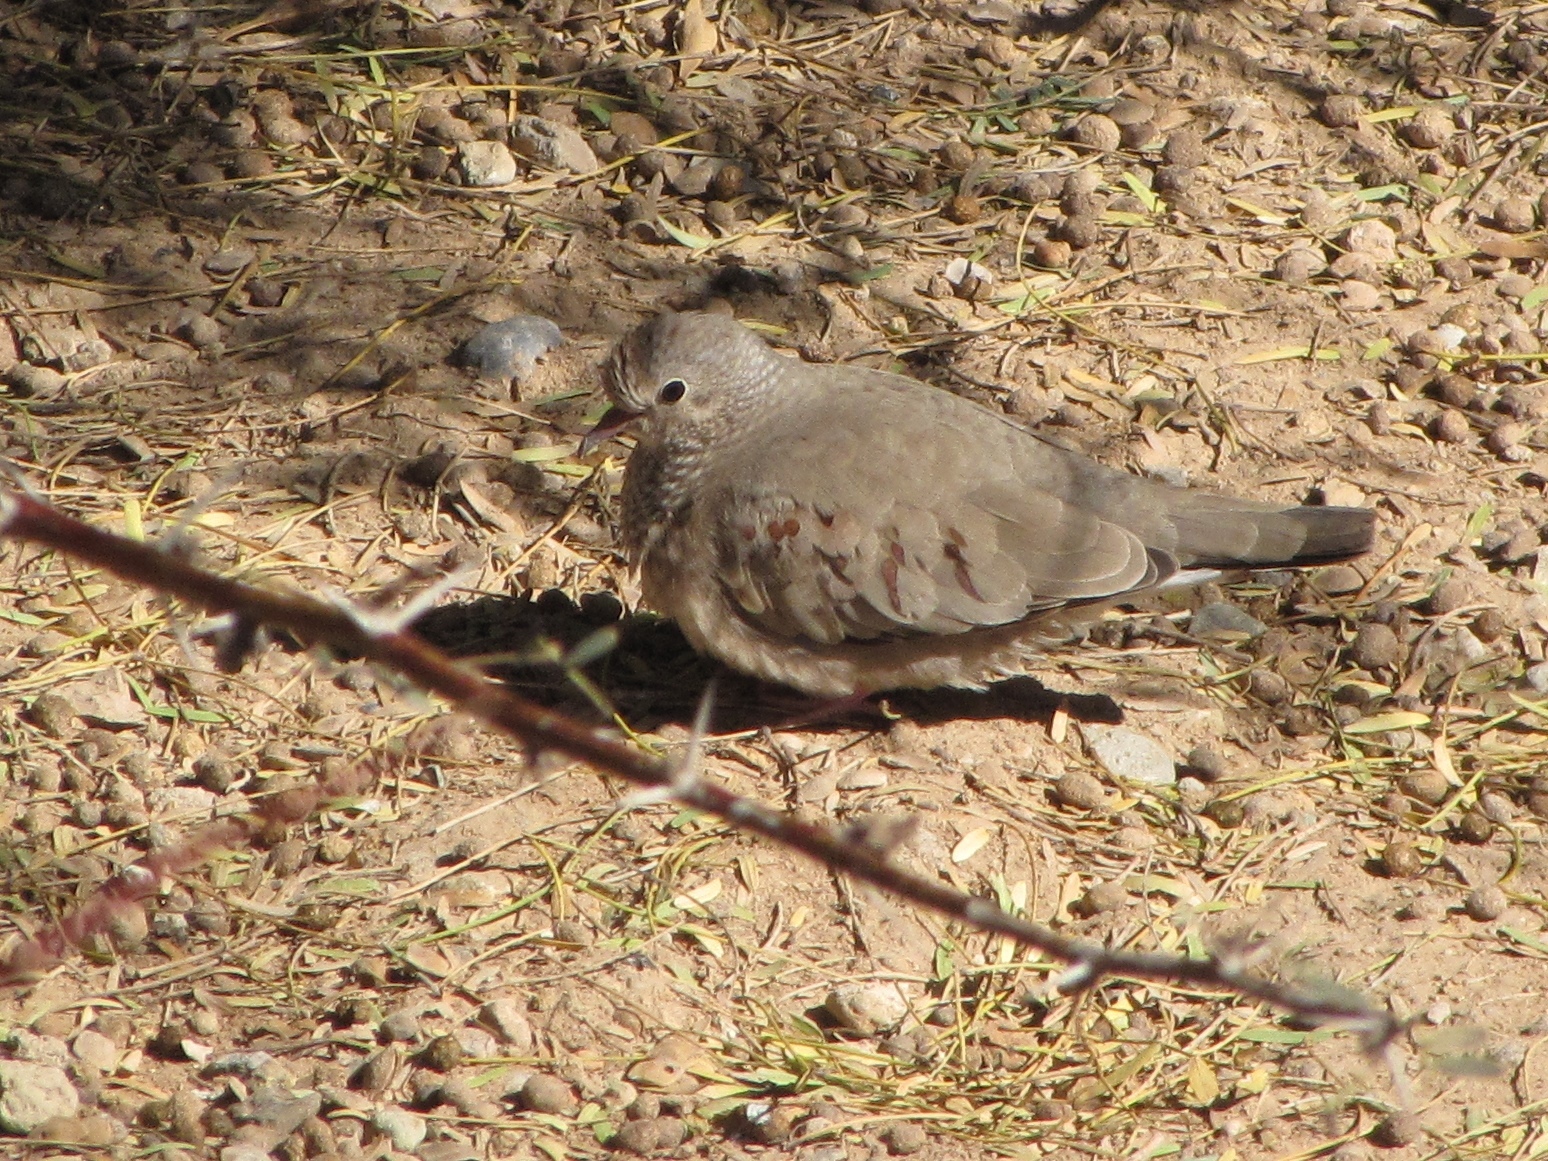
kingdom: Animalia
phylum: Chordata
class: Aves
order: Columbiformes
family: Columbidae
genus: Columbina
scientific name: Columbina passerina
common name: Common ground-dove
